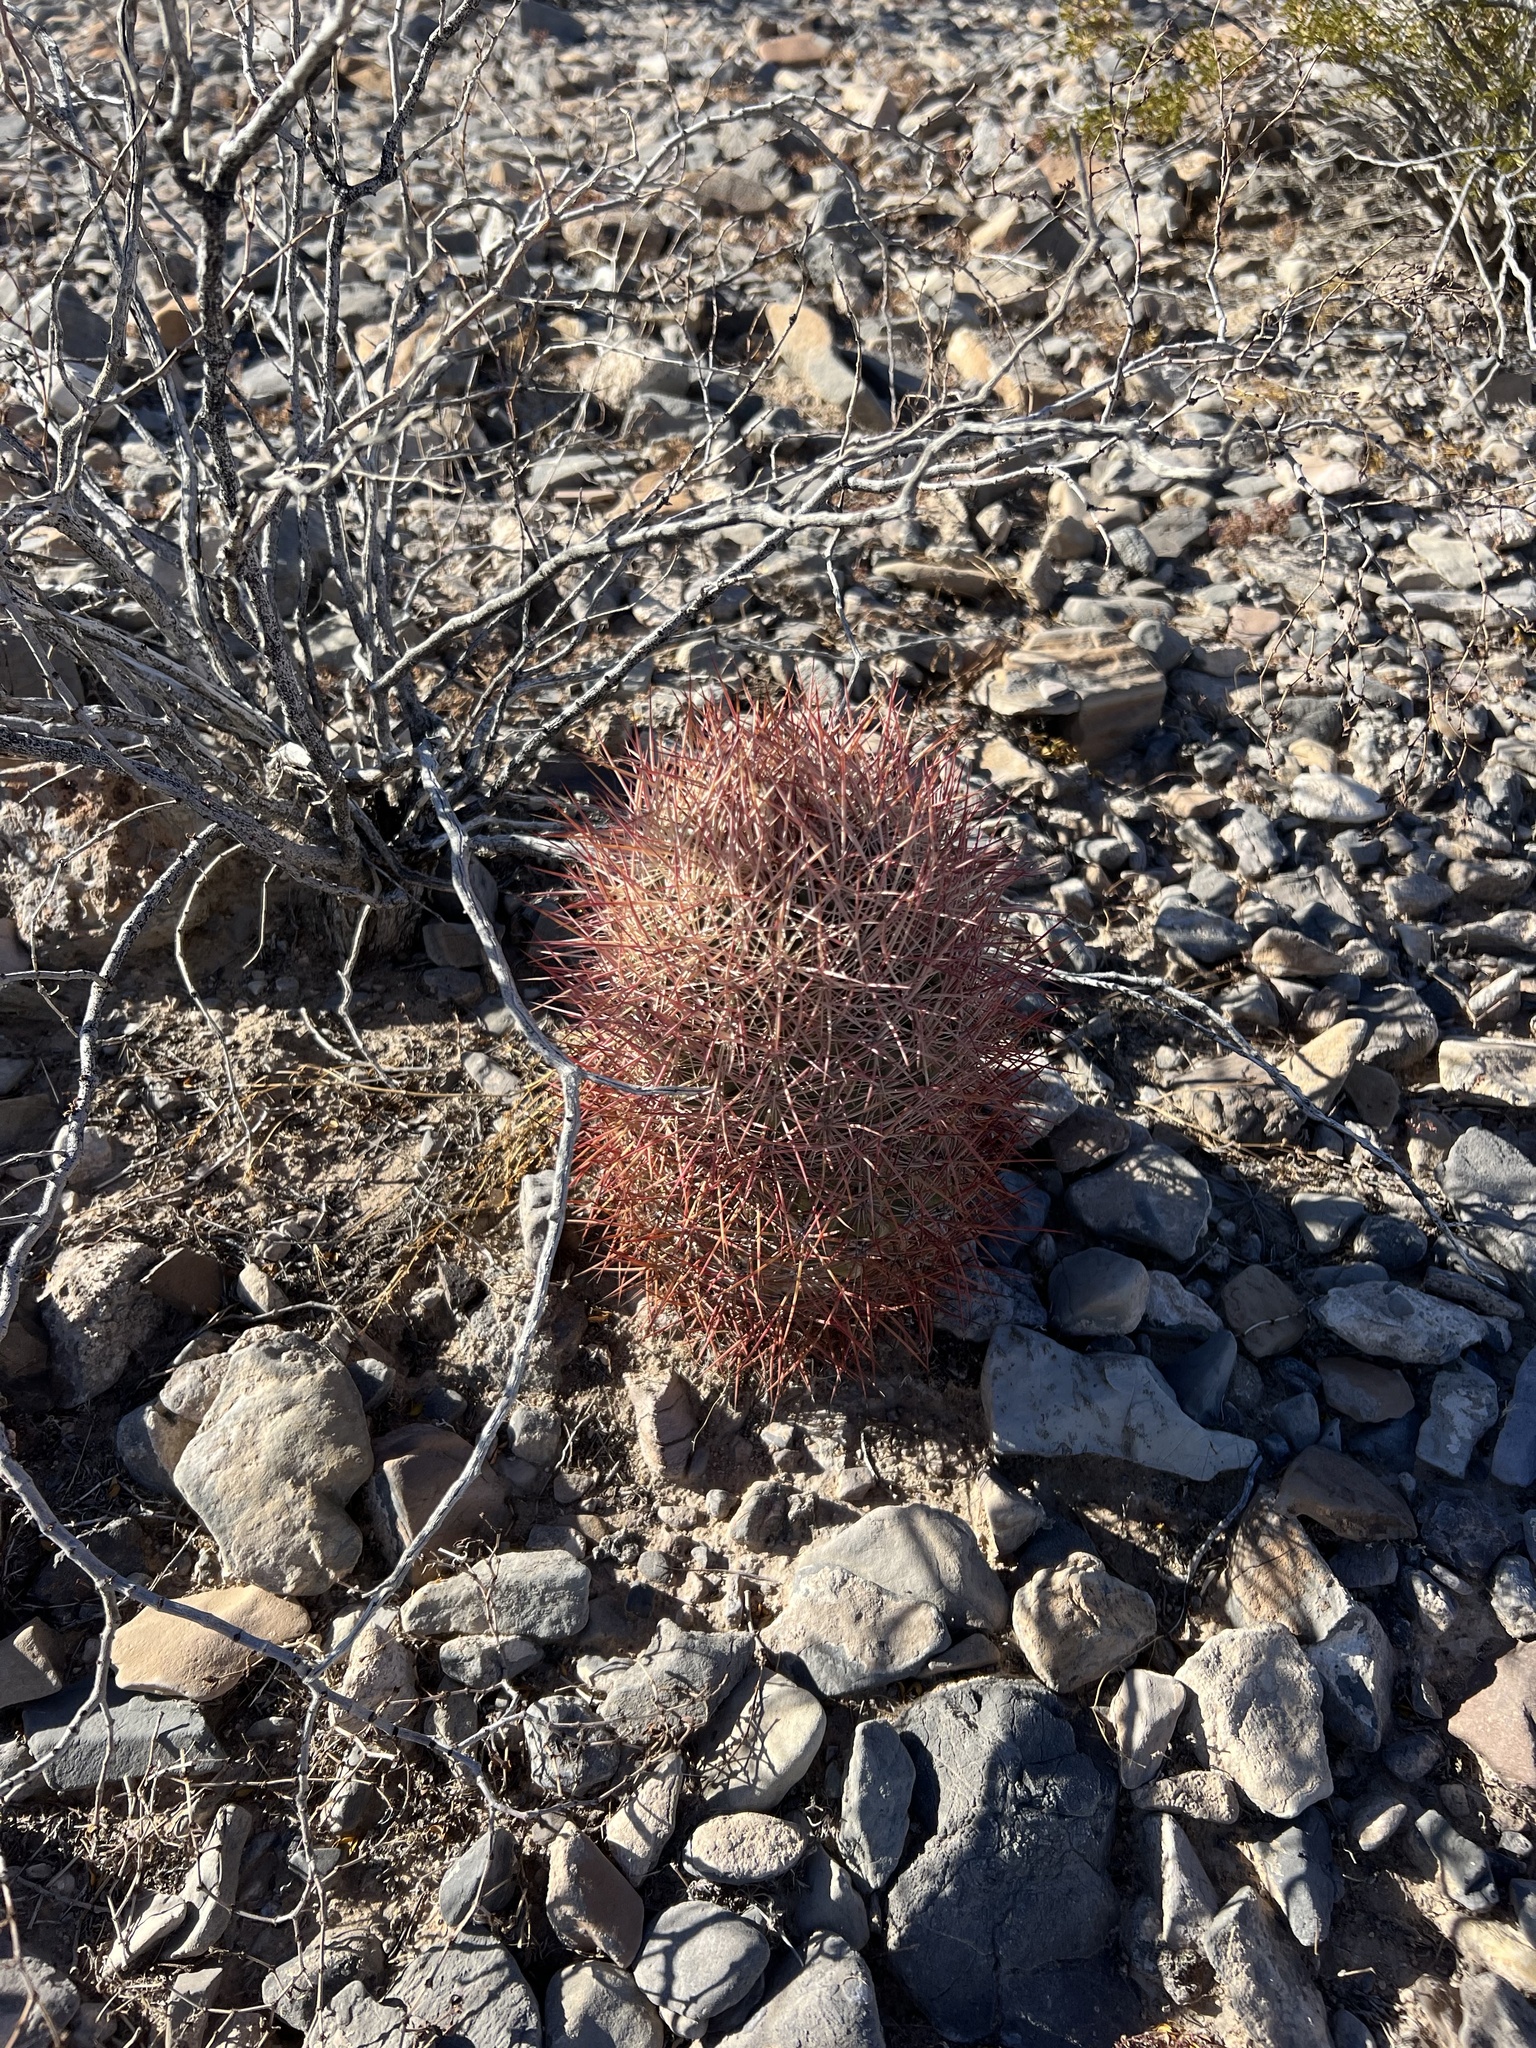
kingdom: Plantae
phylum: Tracheophyta
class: Magnoliopsida
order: Caryophyllales
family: Cactaceae
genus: Sclerocactus
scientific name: Sclerocactus johnsonii
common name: Eight-spine fishhook cactus
